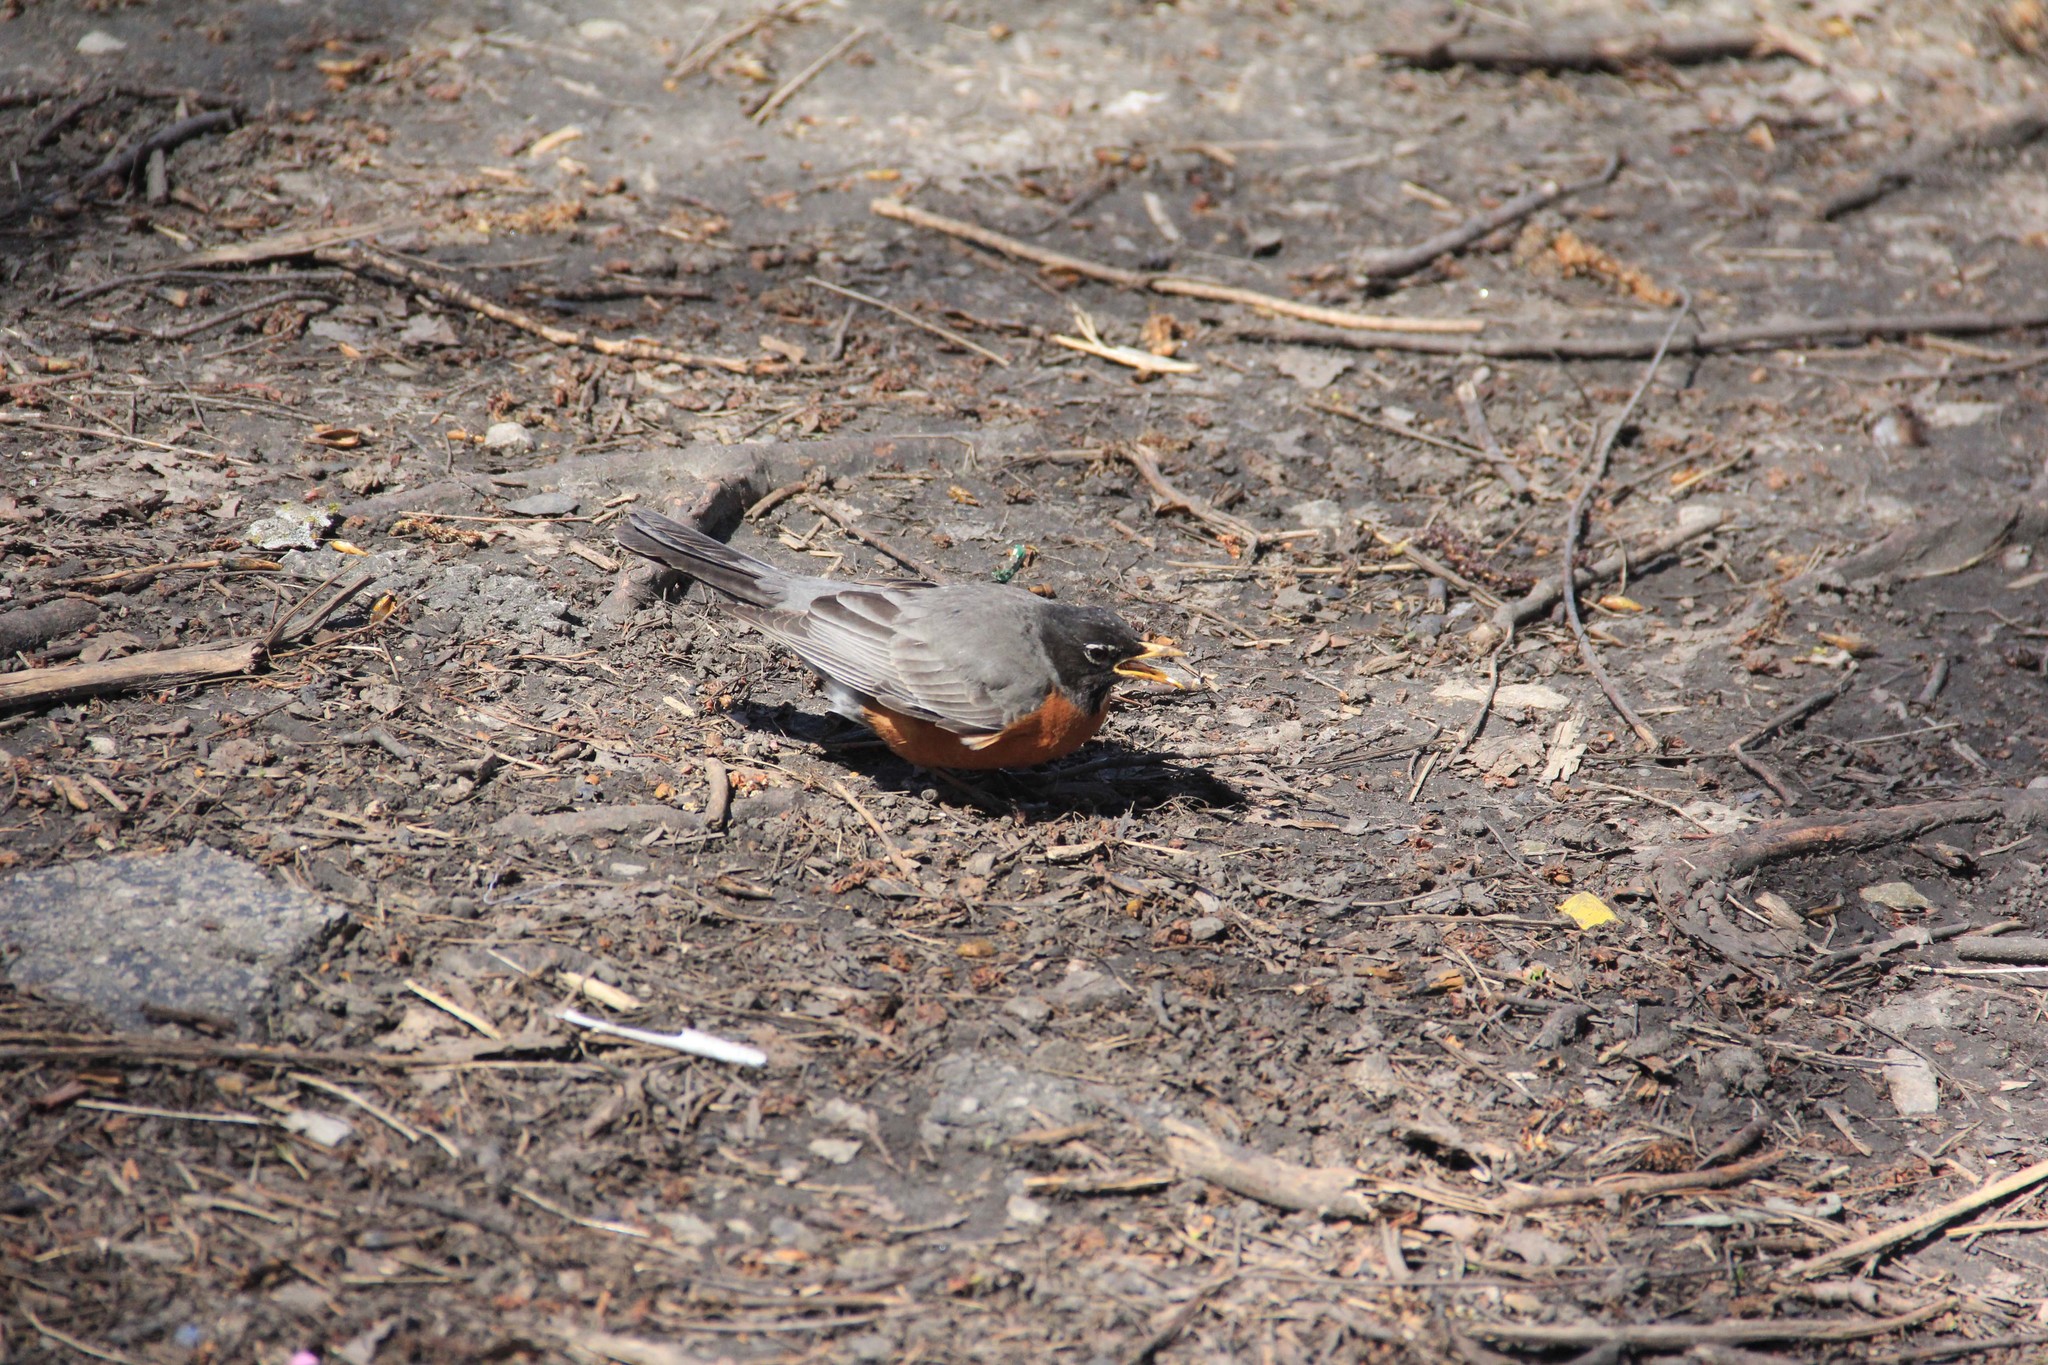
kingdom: Animalia
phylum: Chordata
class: Aves
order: Passeriformes
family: Turdidae
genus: Turdus
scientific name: Turdus migratorius
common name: American robin
